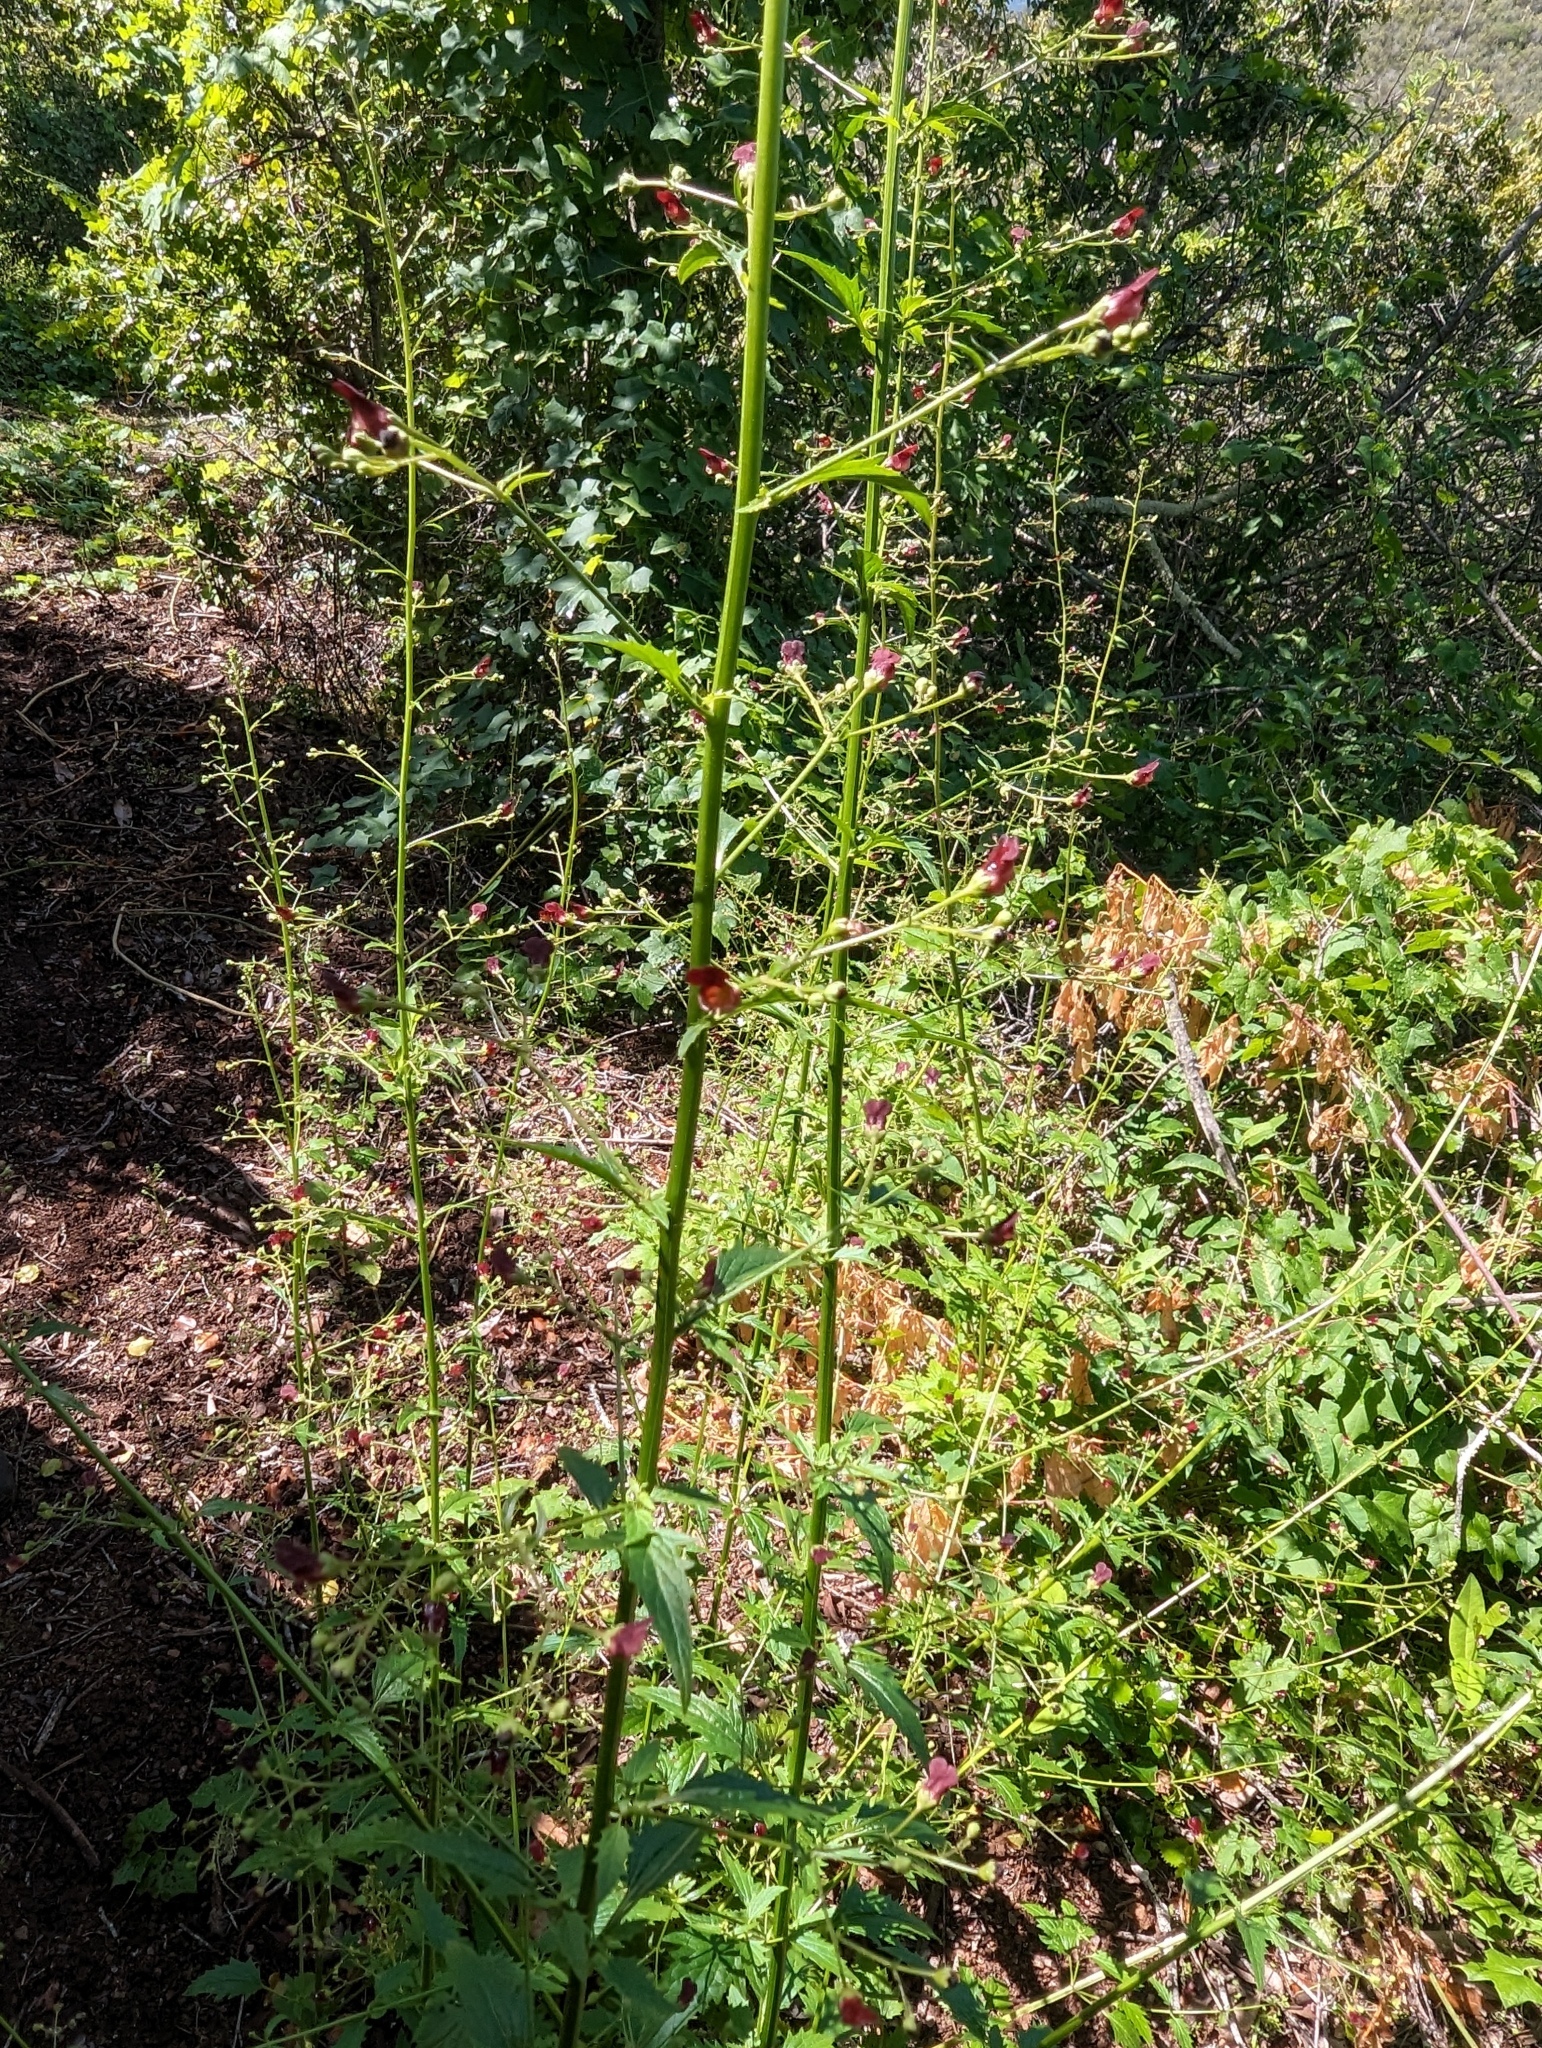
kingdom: Plantae
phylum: Tracheophyta
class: Magnoliopsida
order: Lamiales
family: Scrophulariaceae
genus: Scrophularia
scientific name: Scrophularia californica
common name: California figwort
